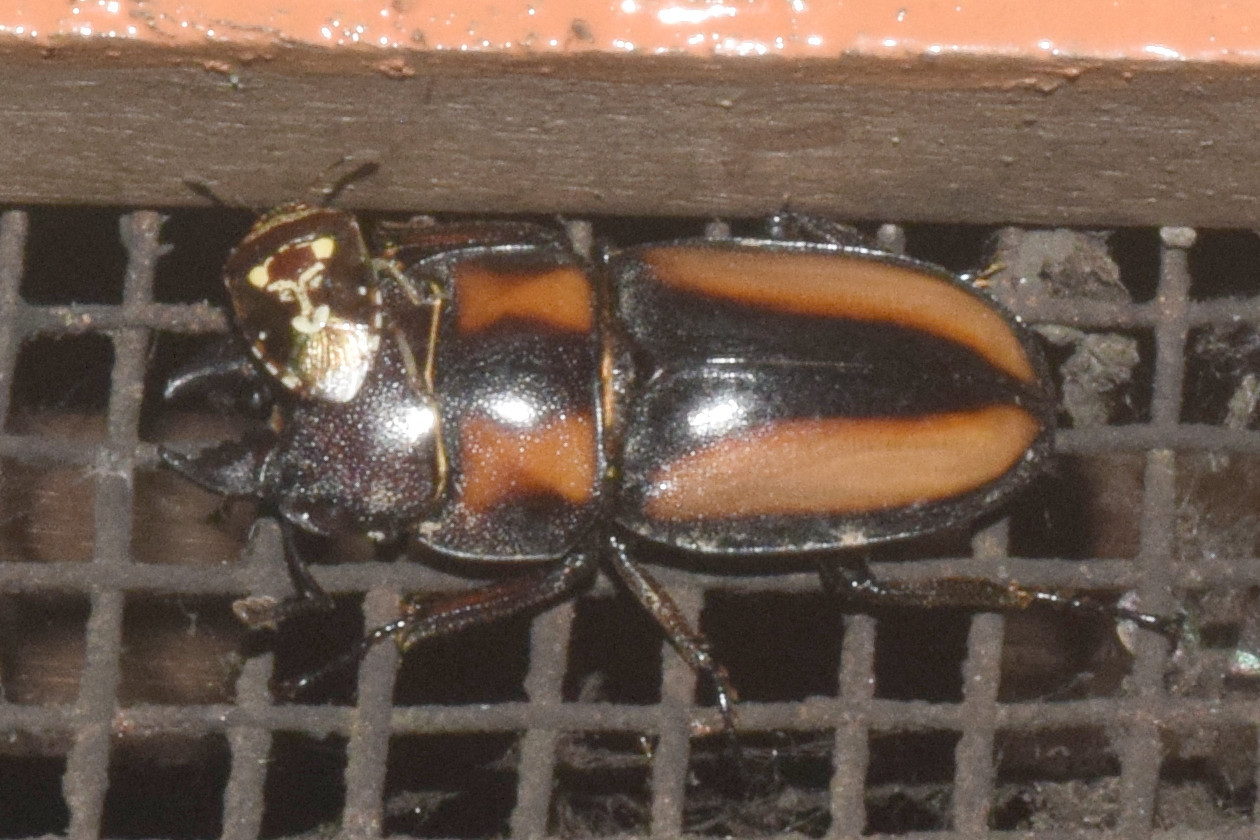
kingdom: Animalia
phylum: Arthropoda
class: Insecta
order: Coleoptera
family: Lucanidae
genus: Prosopocoilus
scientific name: Prosopocoilus biplagiatus
